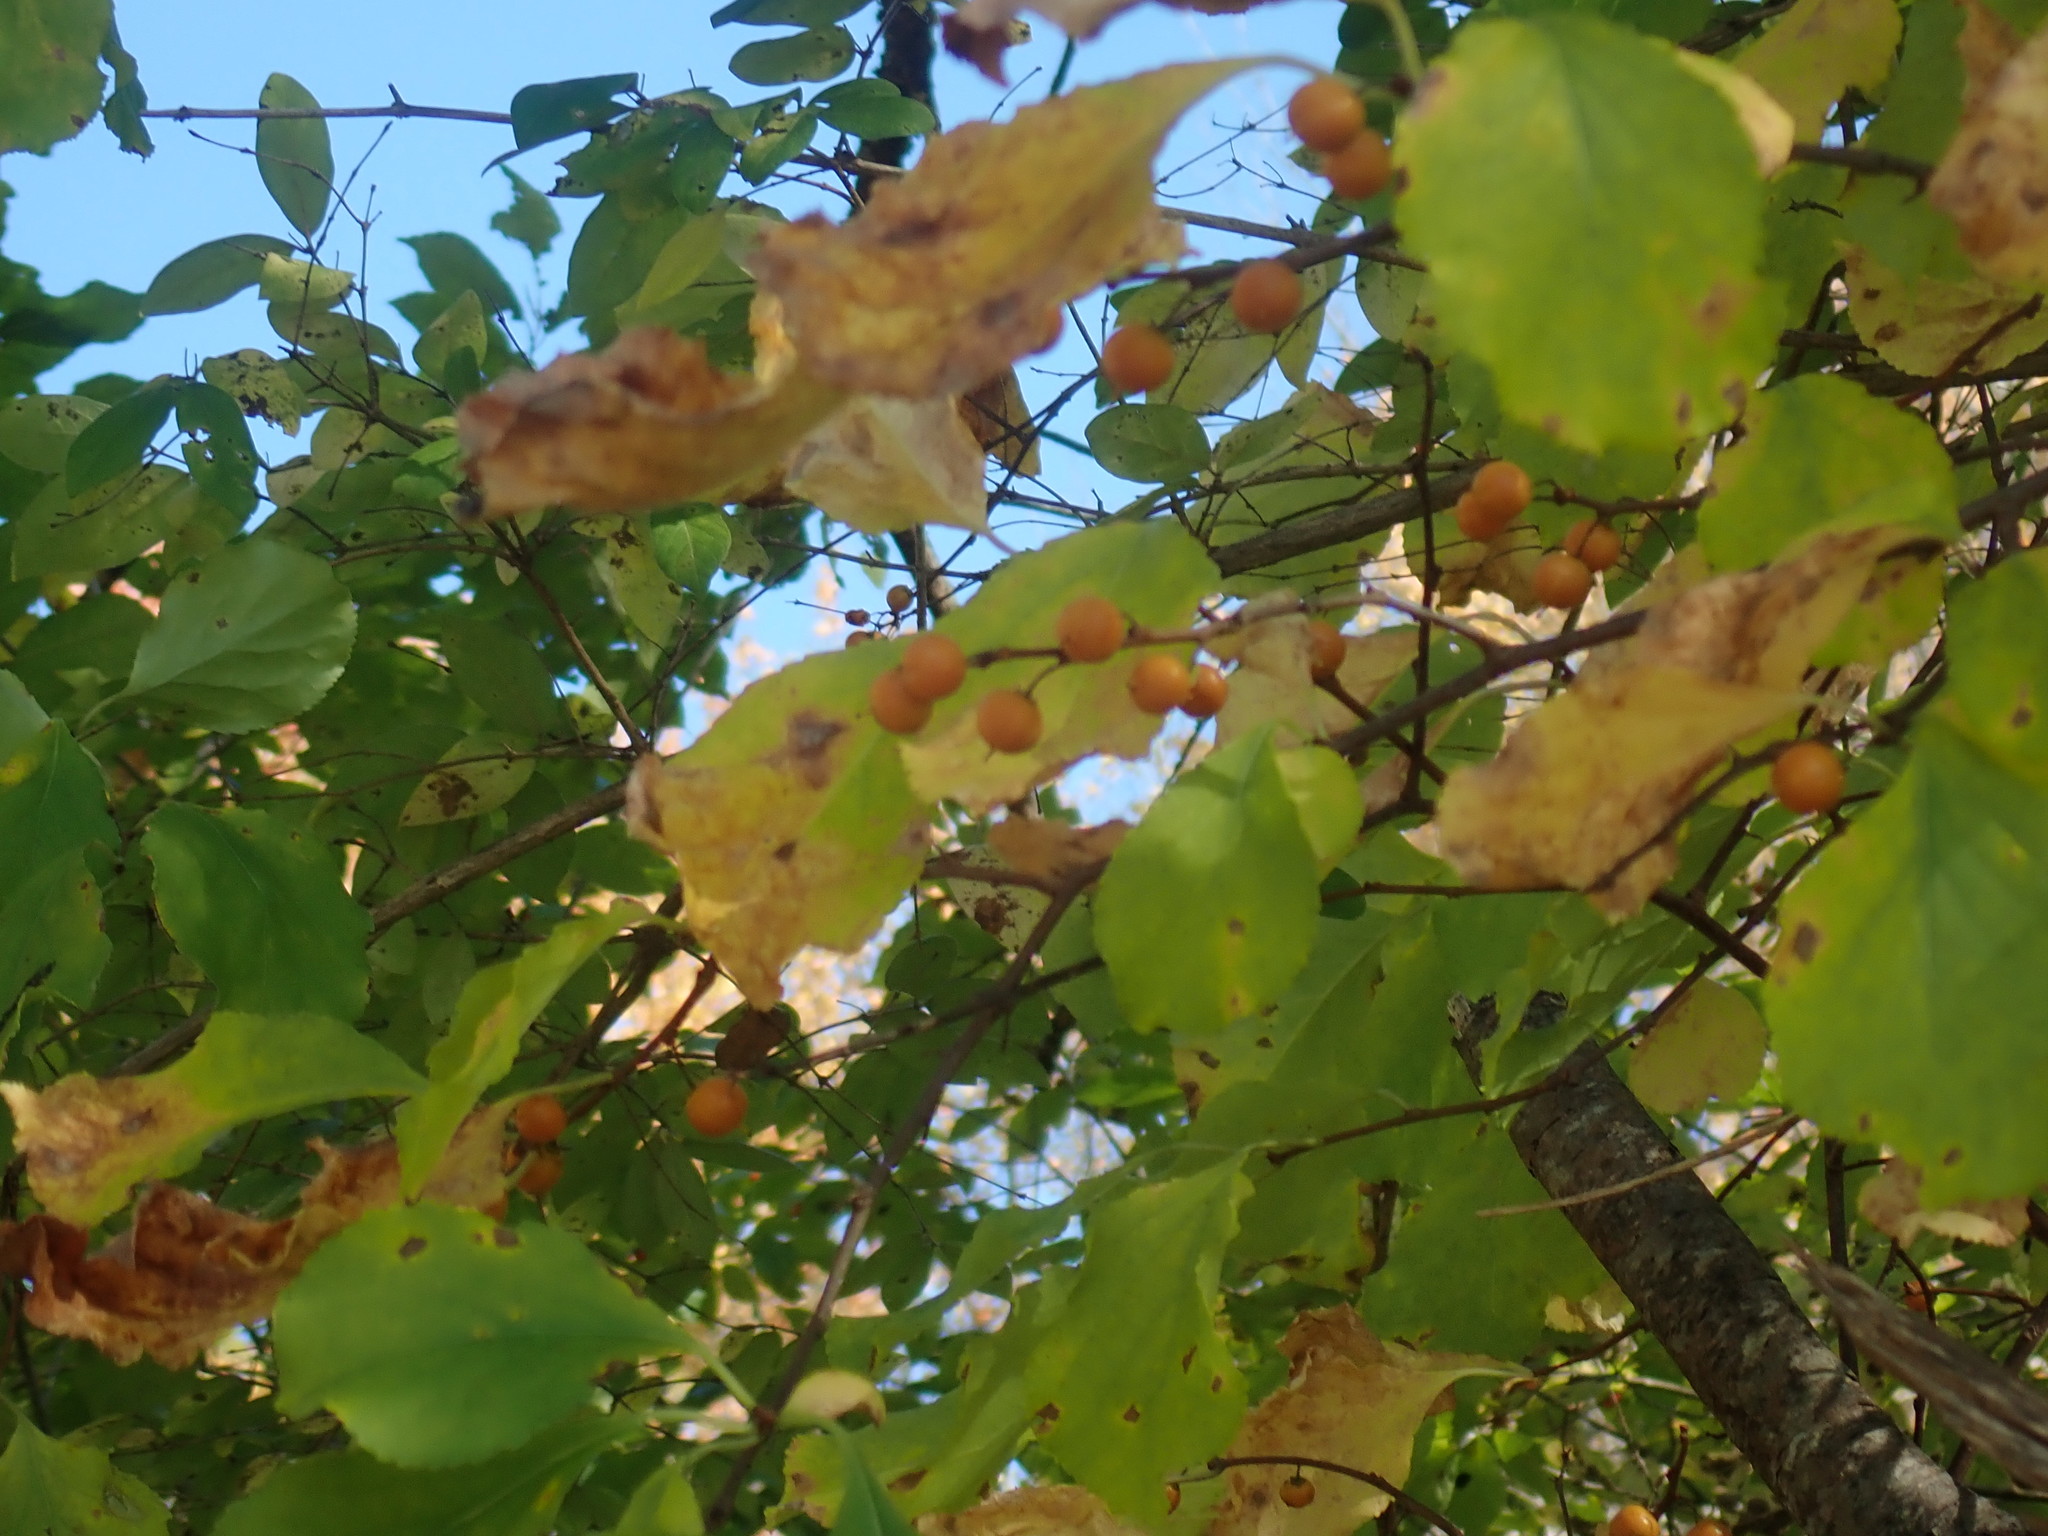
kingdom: Plantae
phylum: Tracheophyta
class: Magnoliopsida
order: Celastrales
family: Celastraceae
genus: Celastrus
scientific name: Celastrus orbiculatus
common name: Oriental bittersweet
